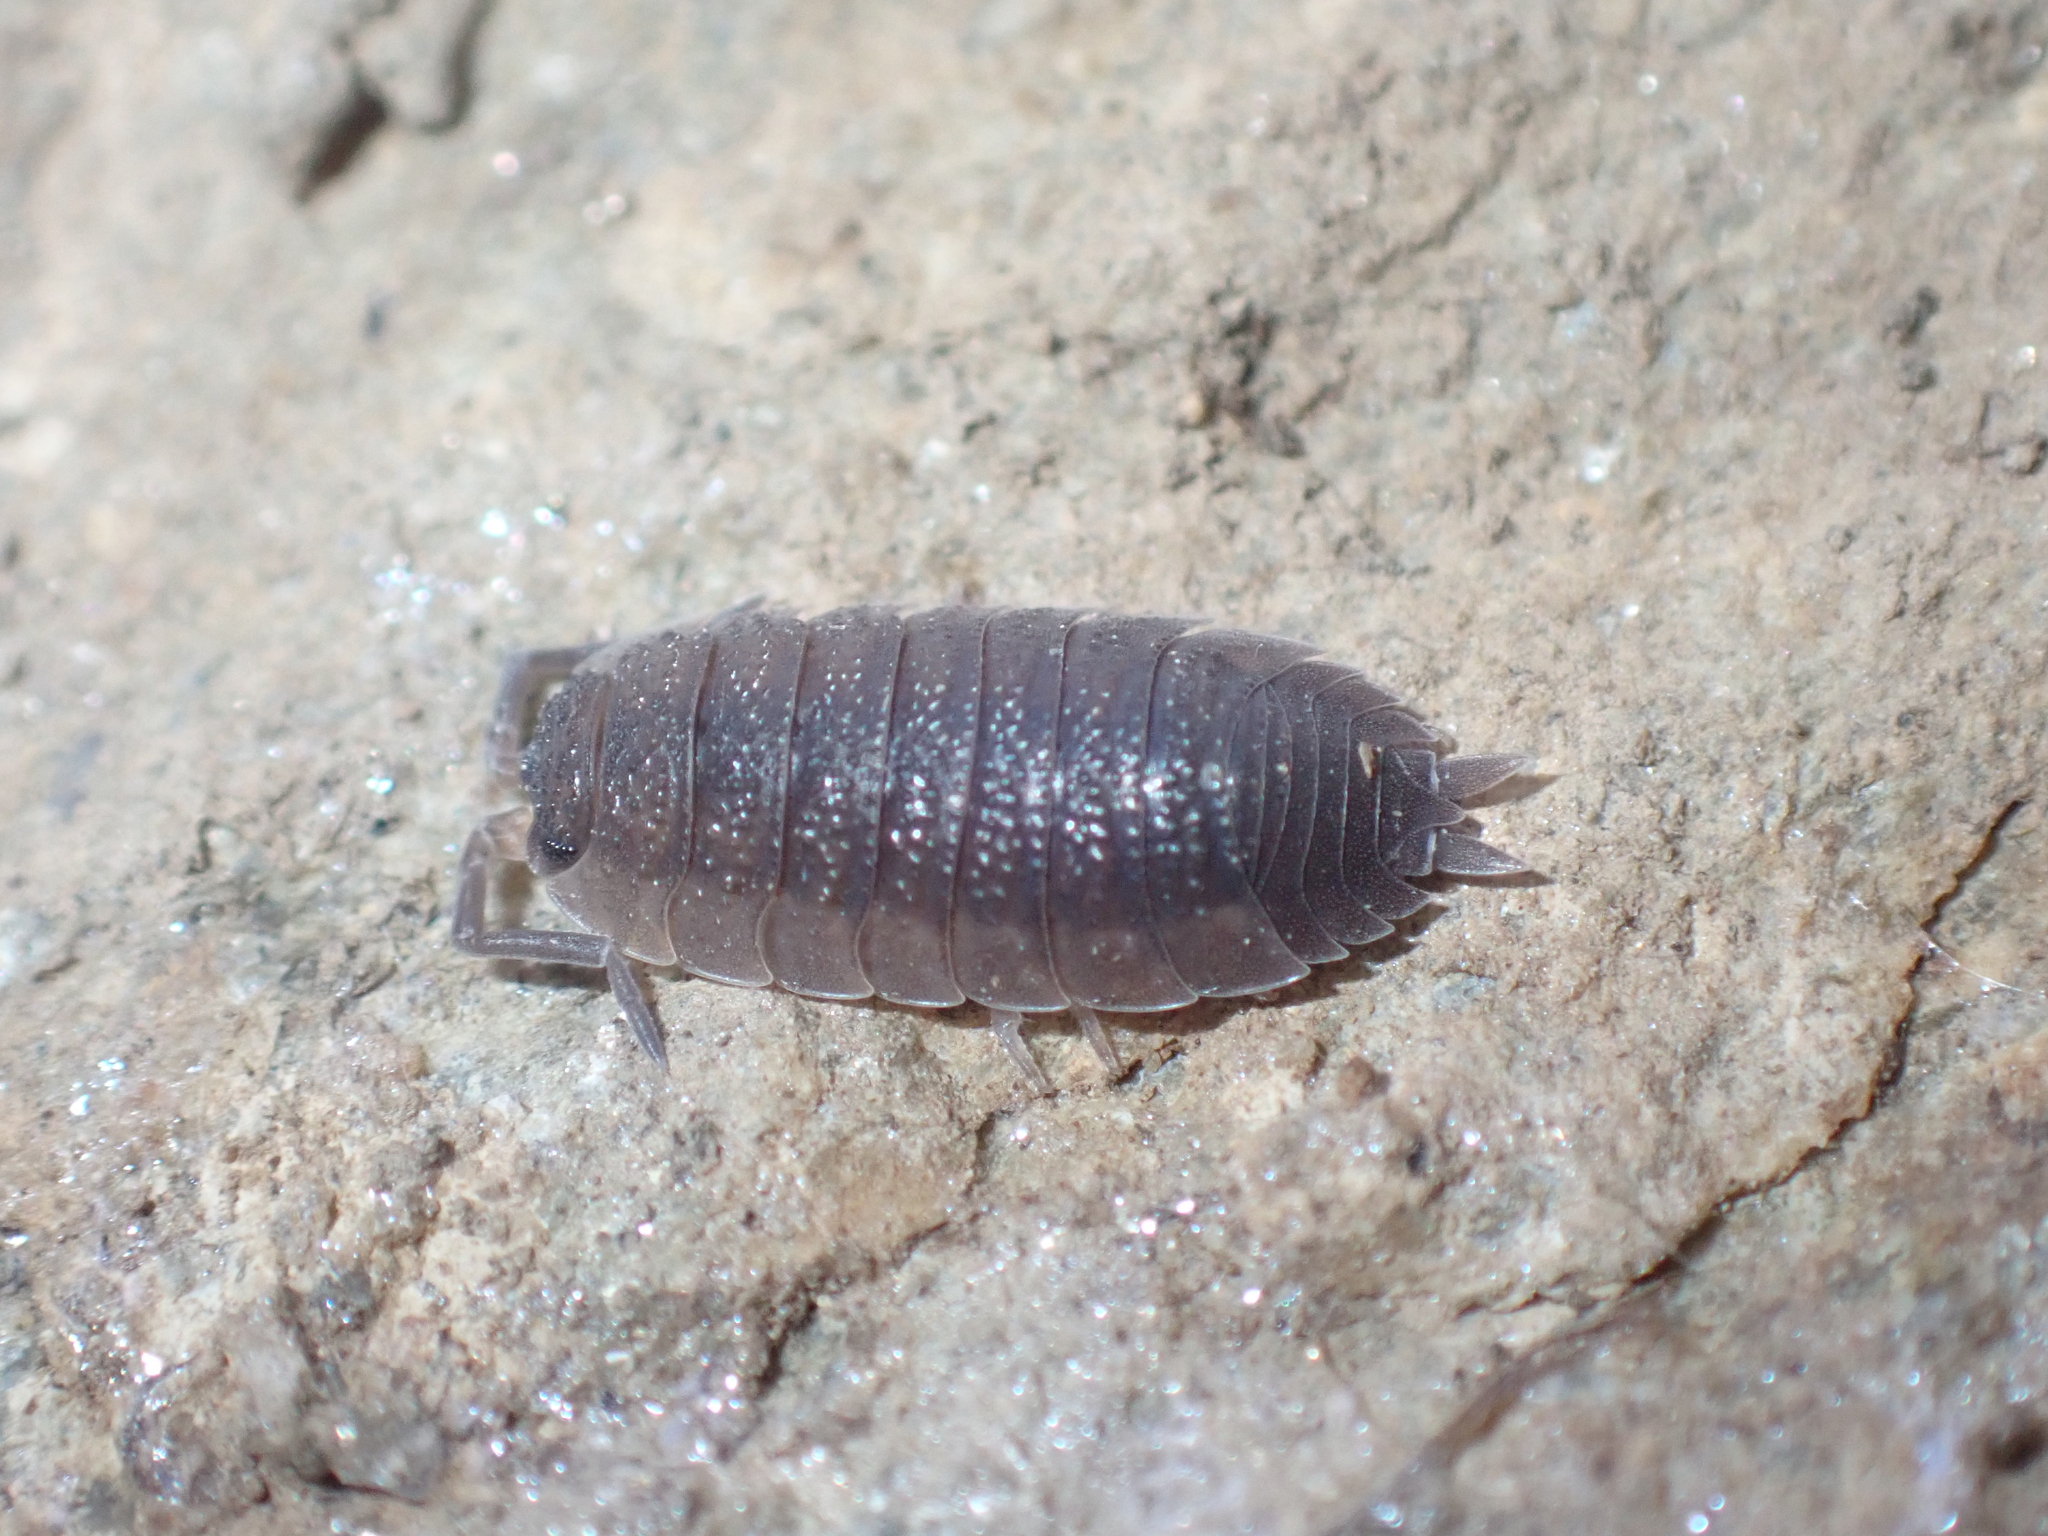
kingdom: Animalia
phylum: Arthropoda
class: Malacostraca
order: Isopoda
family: Porcellionidae
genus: Porcellio
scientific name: Porcellio scaber
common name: Common rough woodlouse
